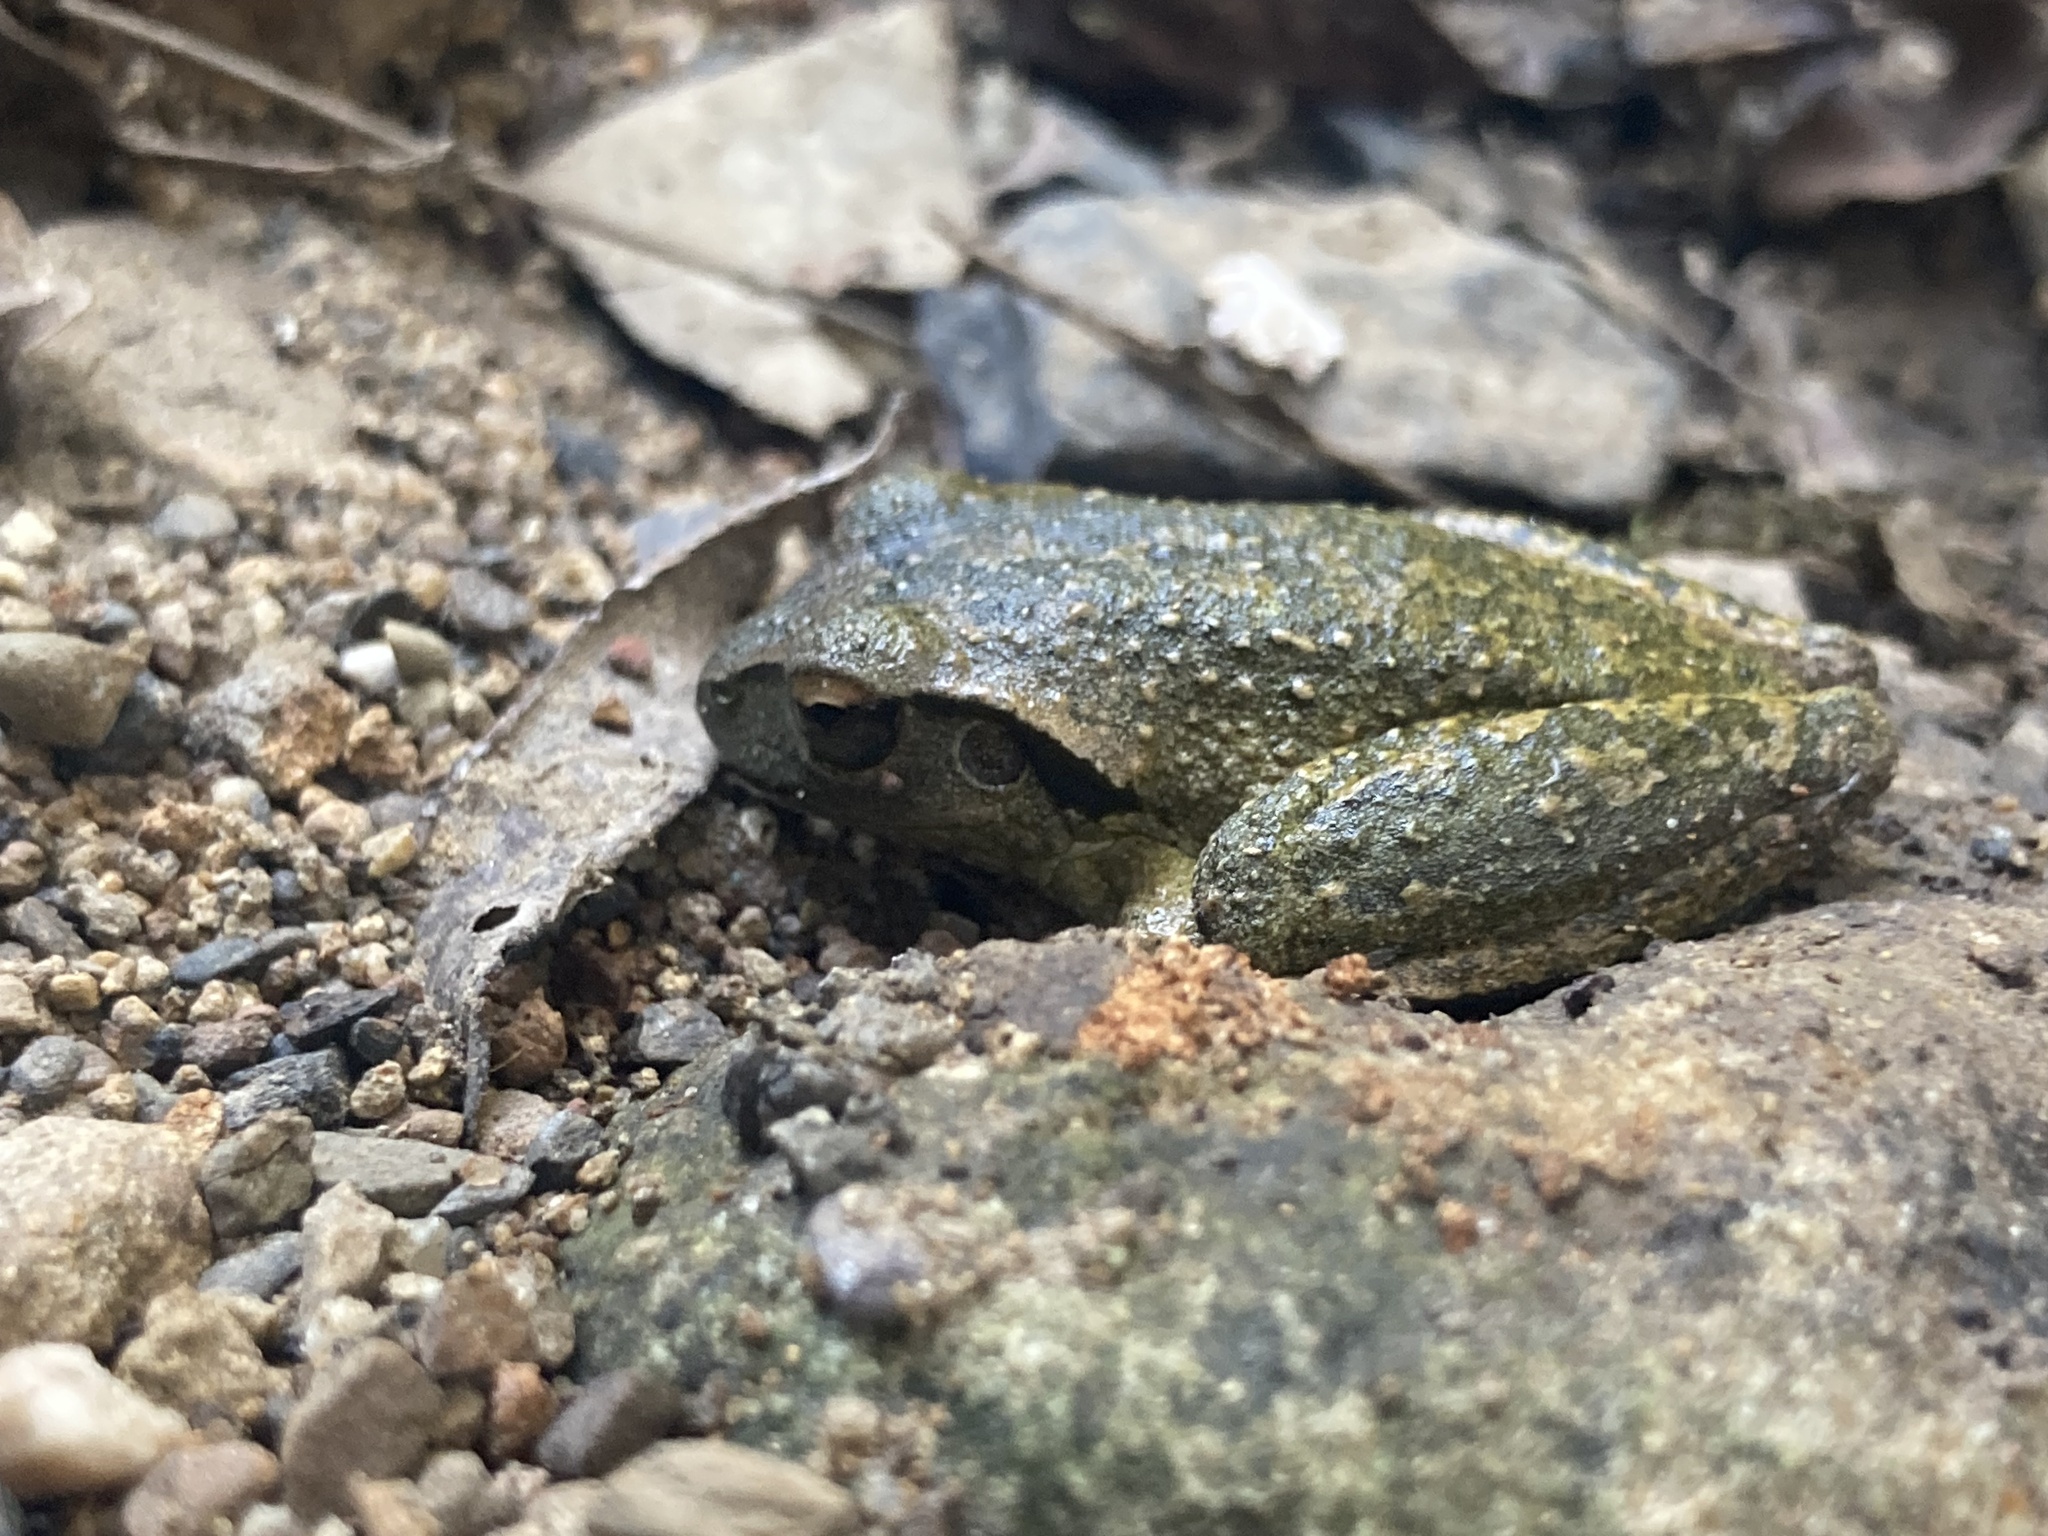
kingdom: Animalia
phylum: Chordata
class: Amphibia
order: Anura
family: Pelodryadidae
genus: Ranoidea
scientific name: Ranoidea lesueurii
